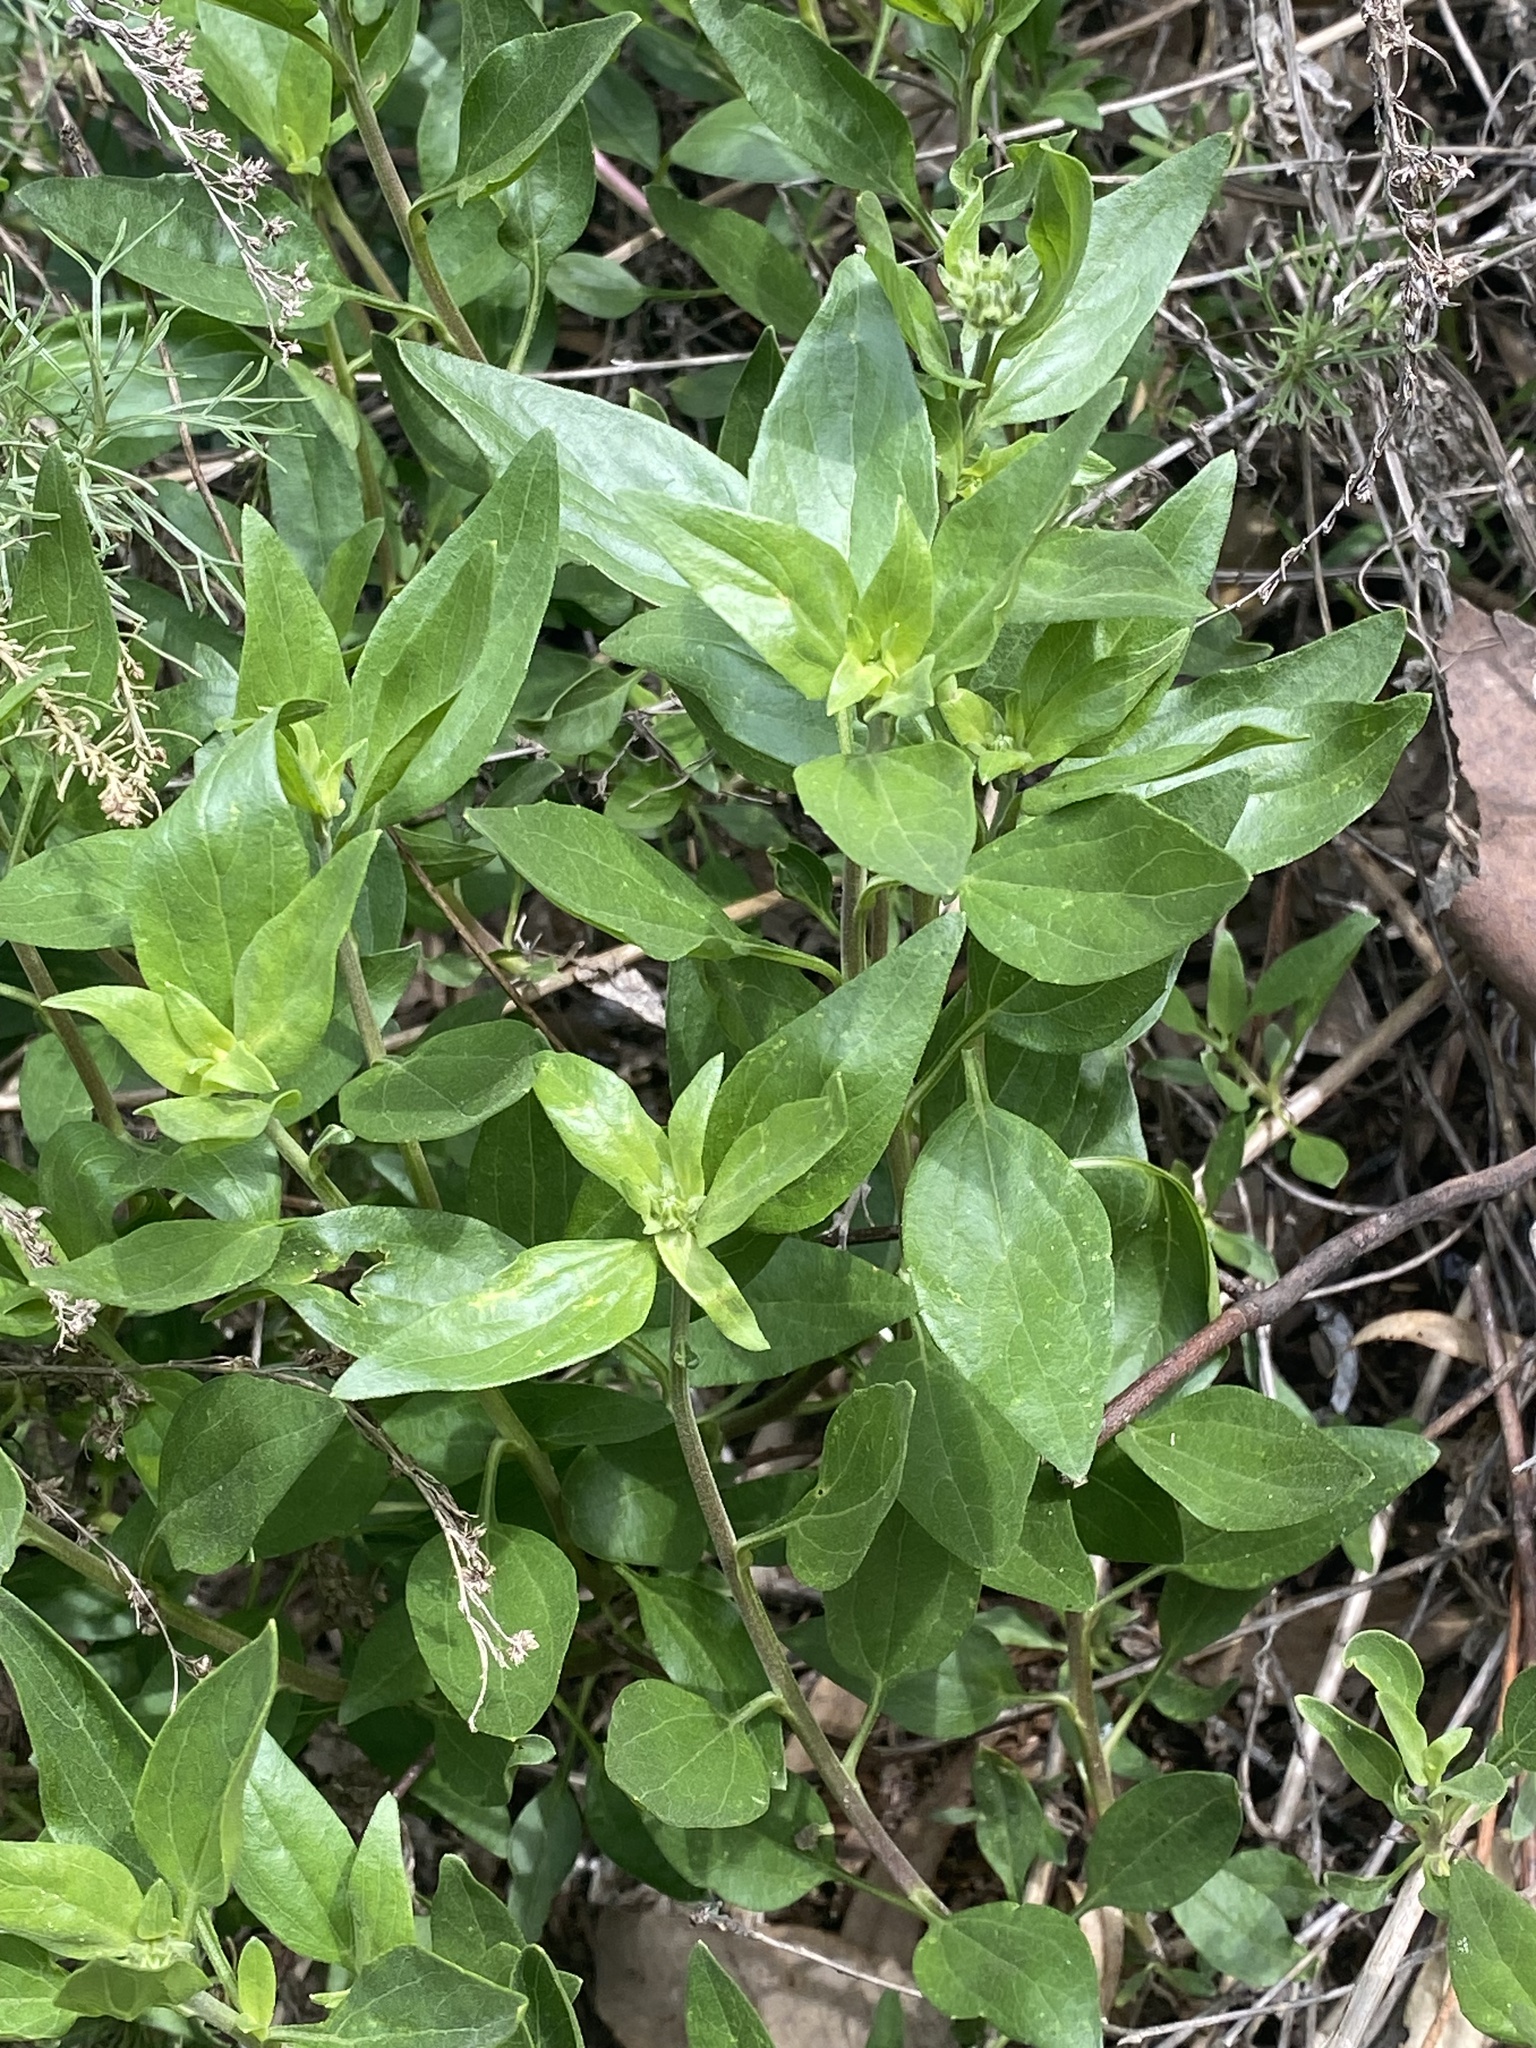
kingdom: Plantae
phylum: Tracheophyta
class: Magnoliopsida
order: Asterales
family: Asteraceae
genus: Encelia
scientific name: Encelia californica
